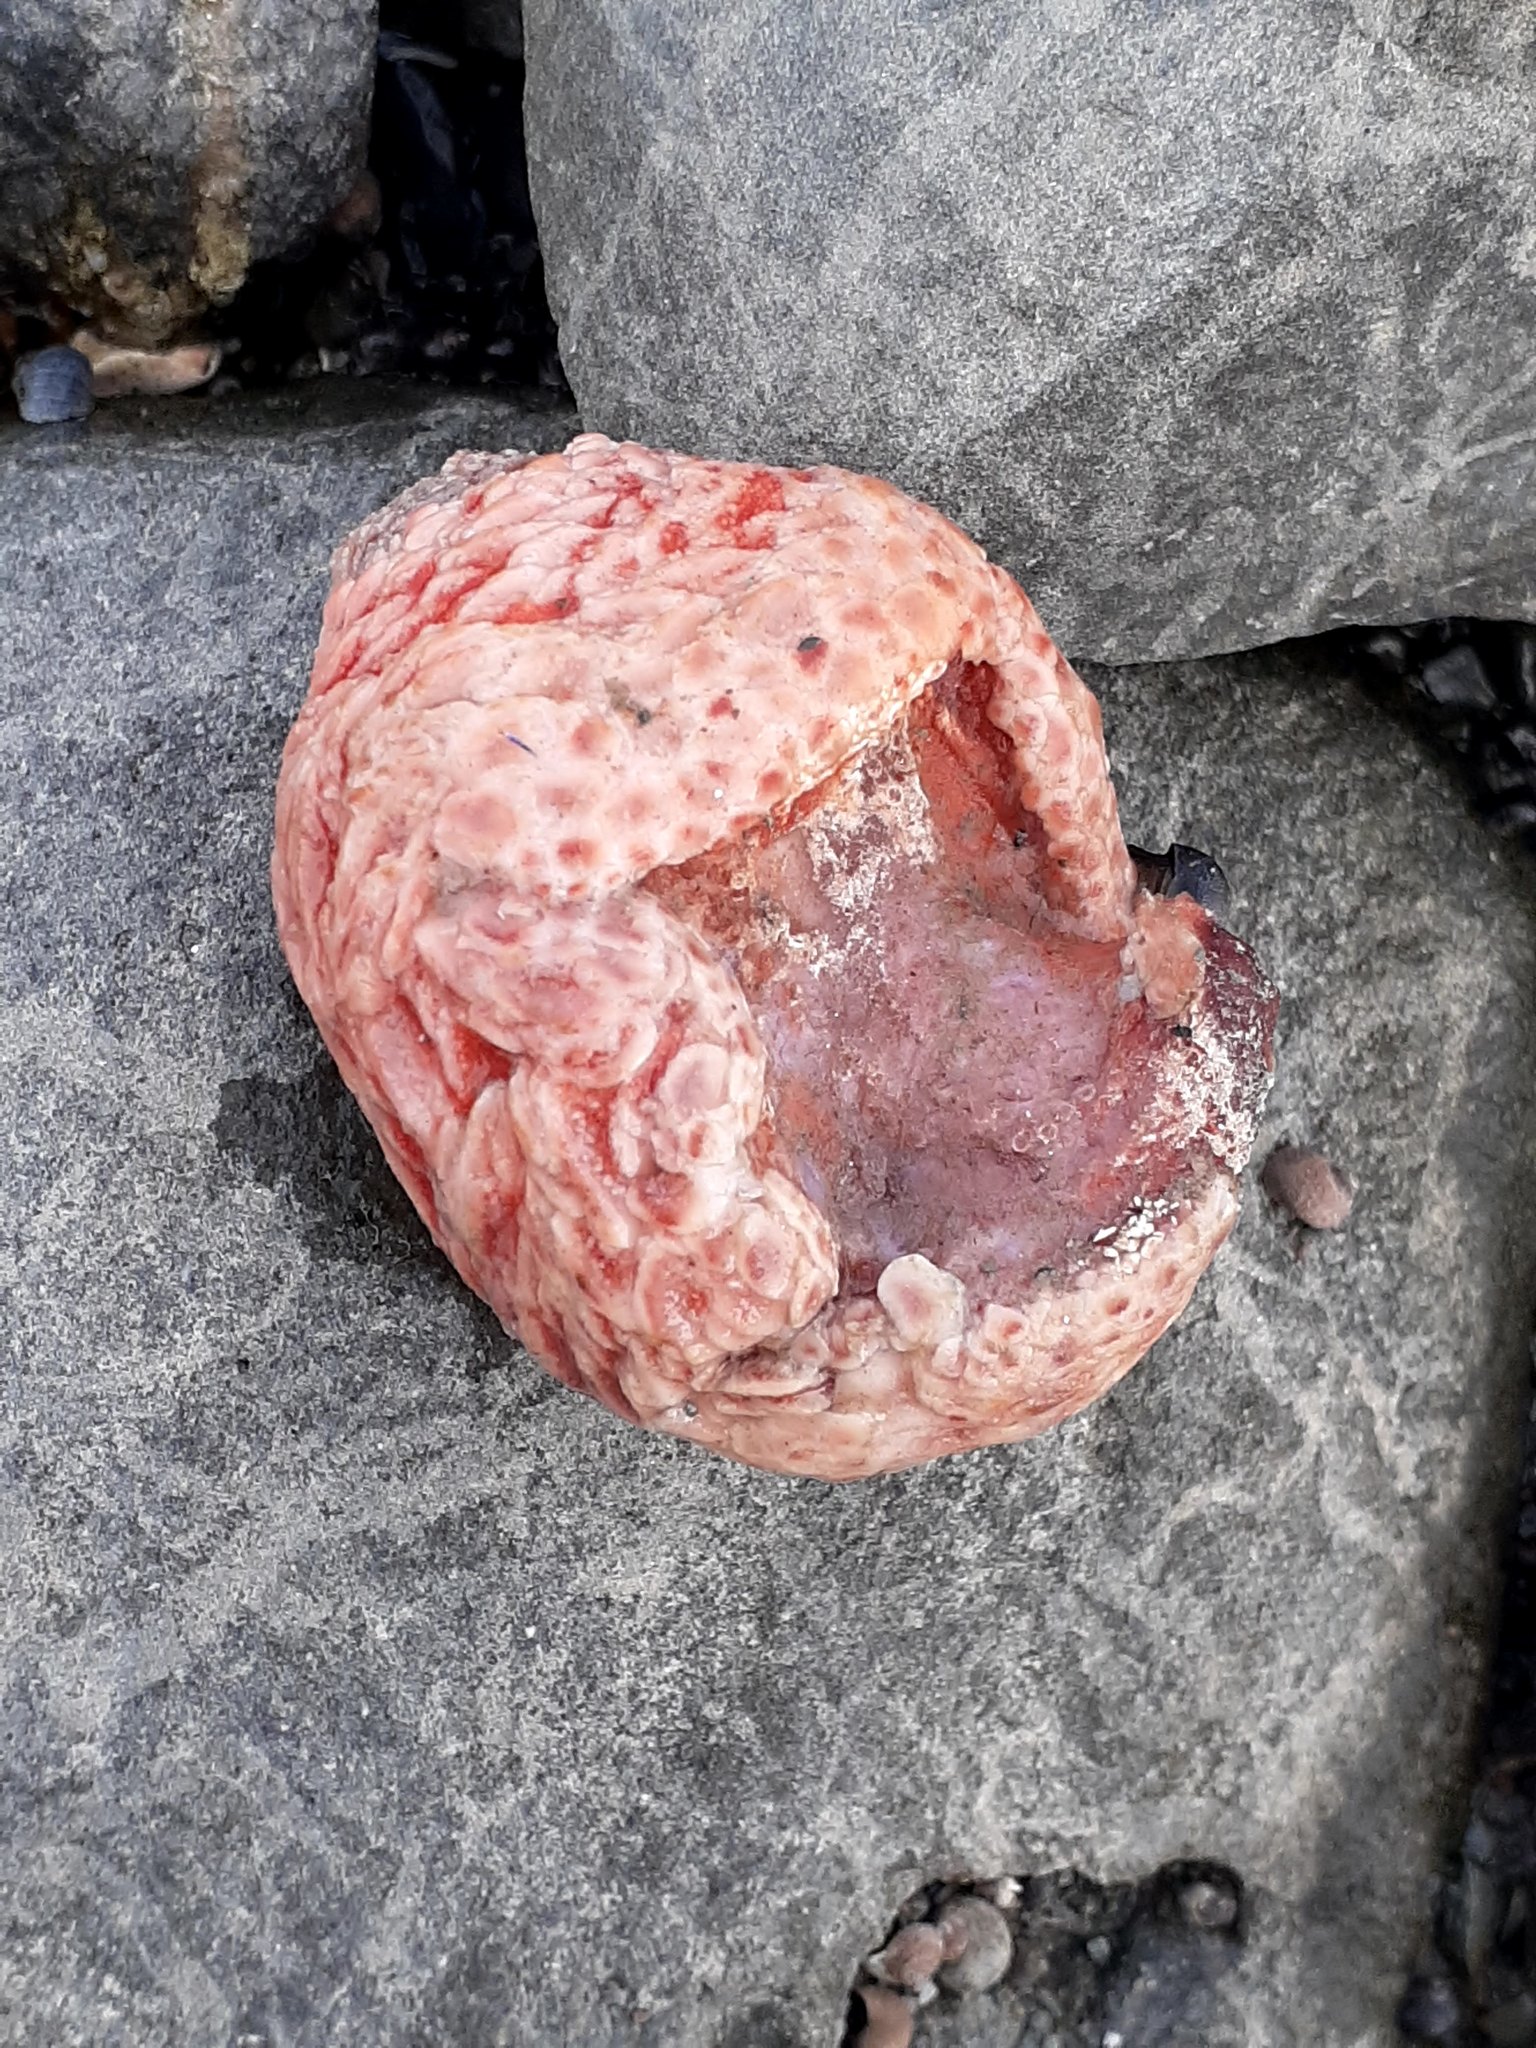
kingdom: Animalia
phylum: Echinodermata
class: Holothuroidea
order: Dendrochirotida
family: Psolidae
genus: Psolus
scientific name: Psolus fabricii
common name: Scarlet psolus
